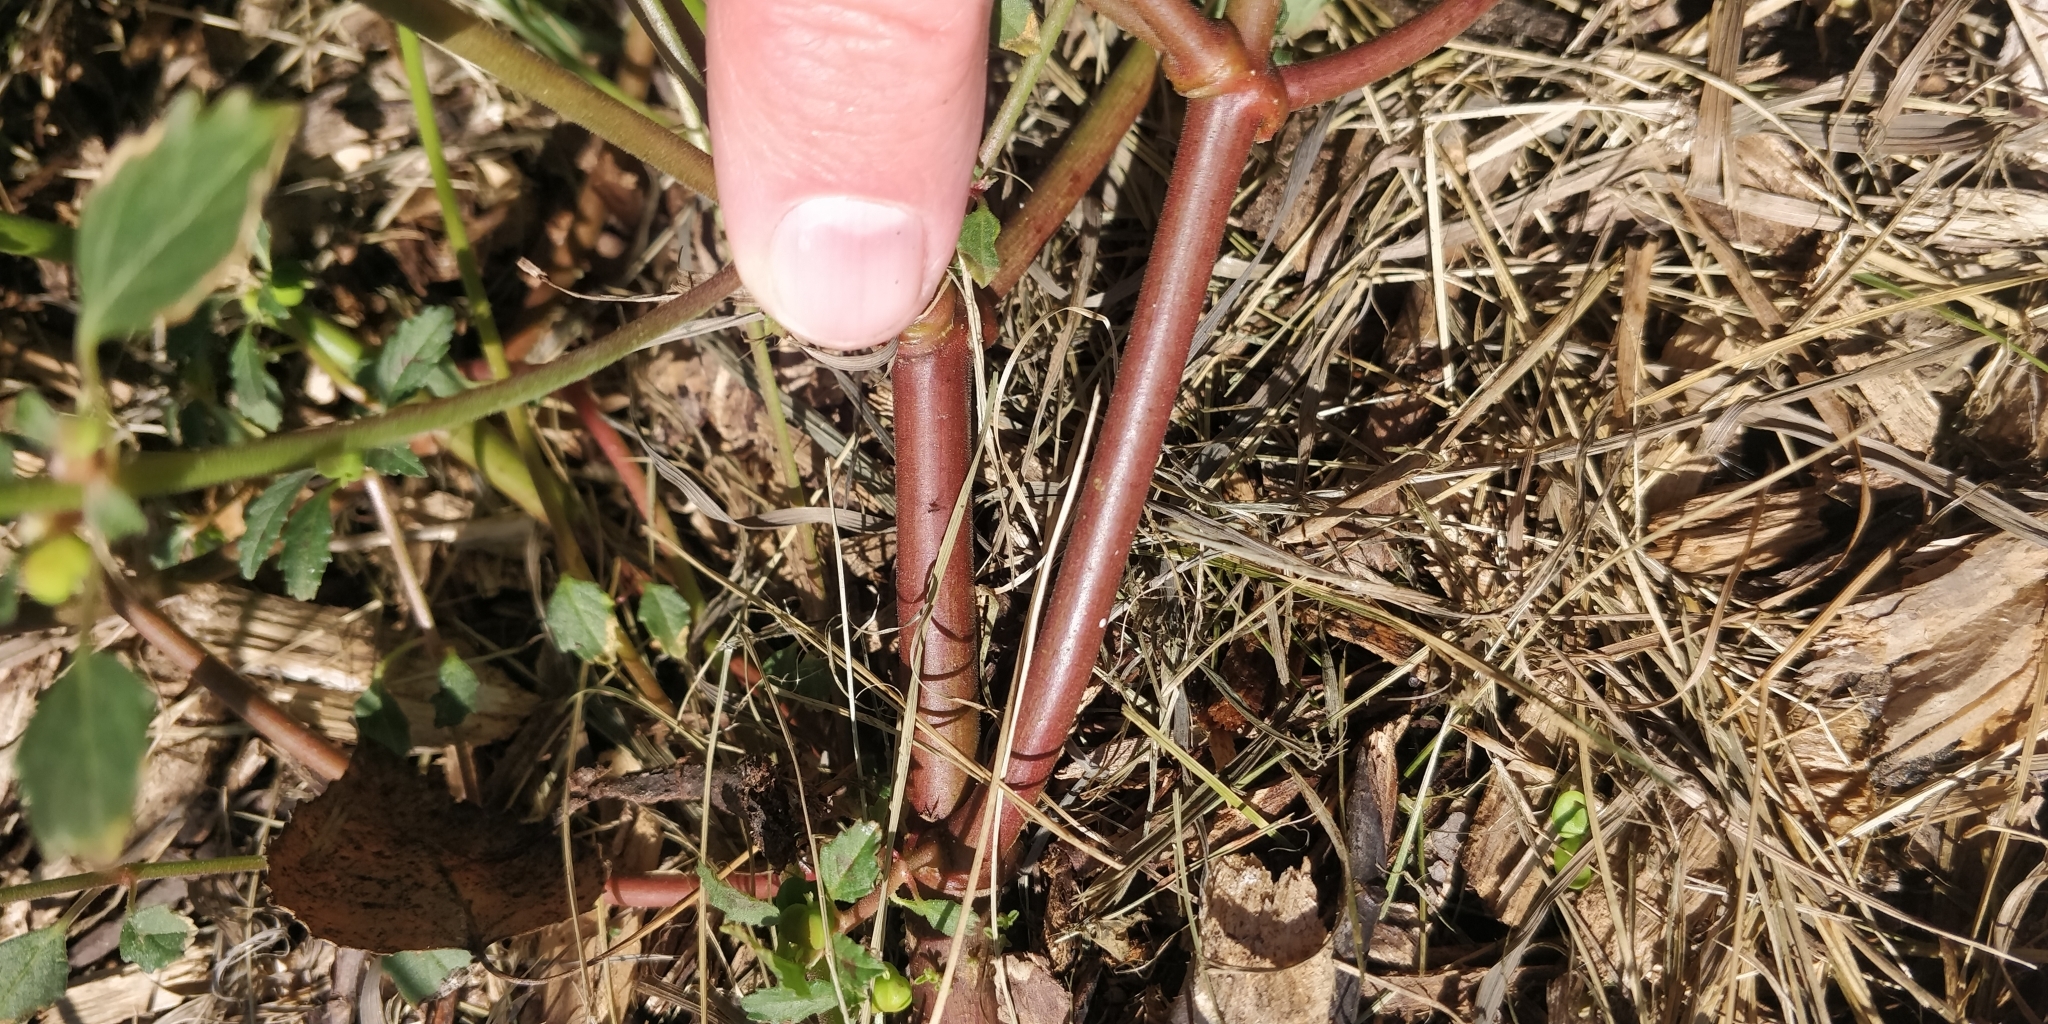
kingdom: Plantae
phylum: Tracheophyta
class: Magnoliopsida
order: Malpighiales
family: Euphorbiaceae
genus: Euphorbia
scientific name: Euphorbia davidii
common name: David's spurge
